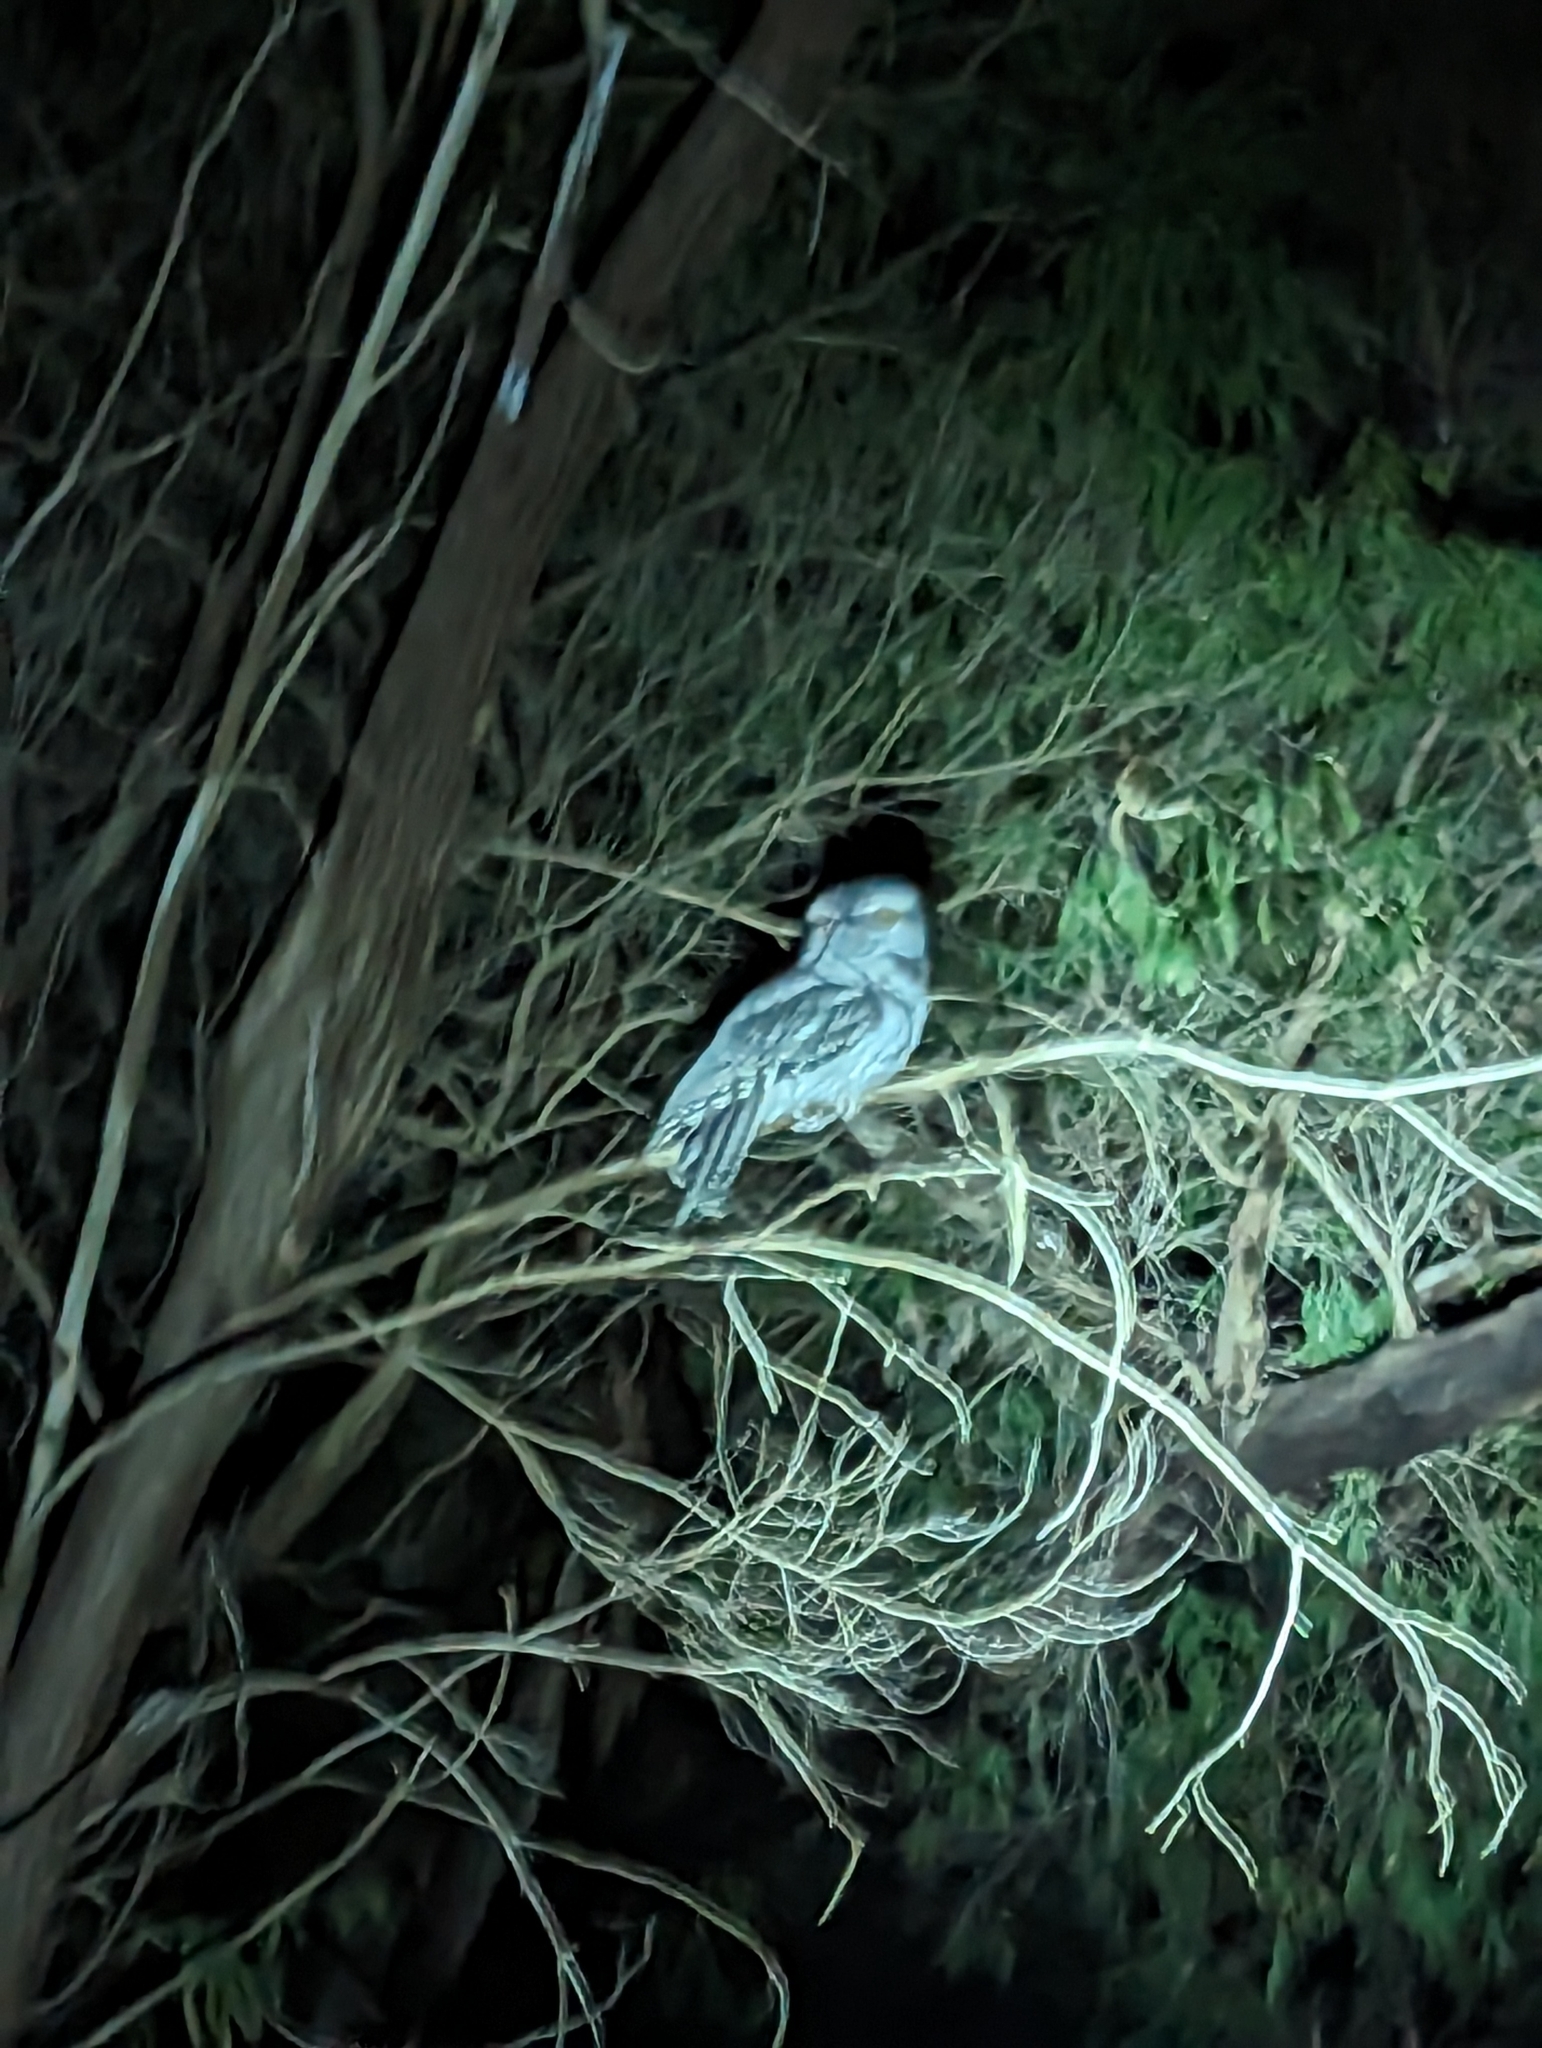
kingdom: Animalia
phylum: Chordata
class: Aves
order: Caprimulgiformes
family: Podargidae
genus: Podargus
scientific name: Podargus strigoides
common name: Tawny frogmouth
